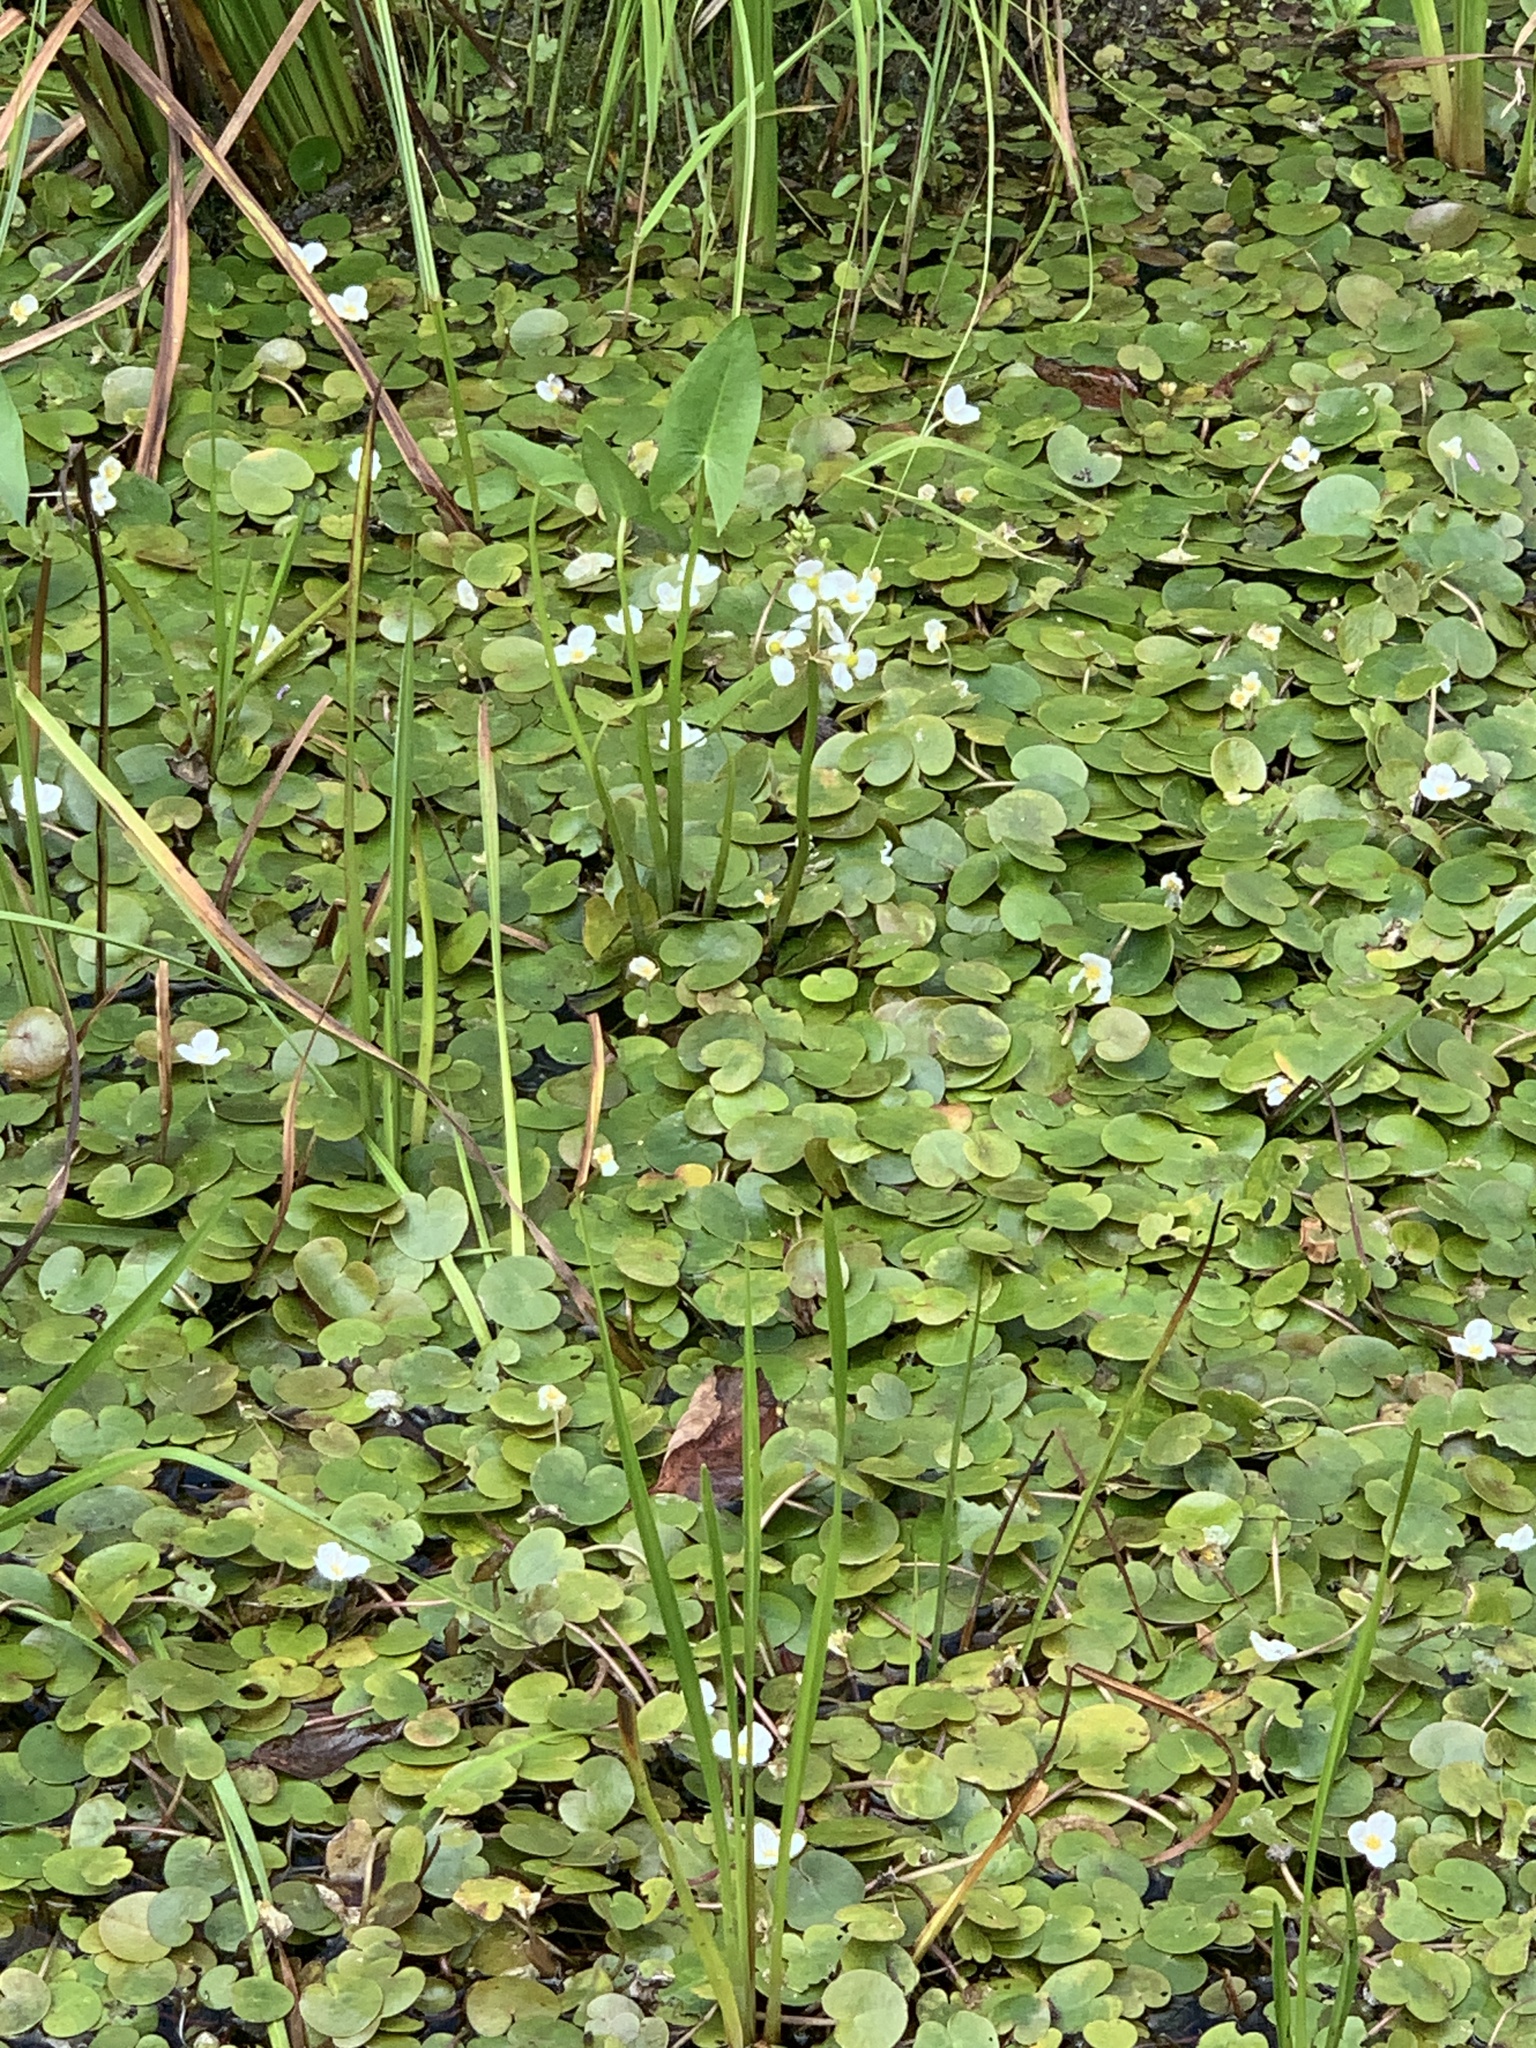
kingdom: Plantae
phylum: Tracheophyta
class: Liliopsida
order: Alismatales
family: Hydrocharitaceae
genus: Hydrocharis
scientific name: Hydrocharis morsus-ranae
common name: Frogbit
